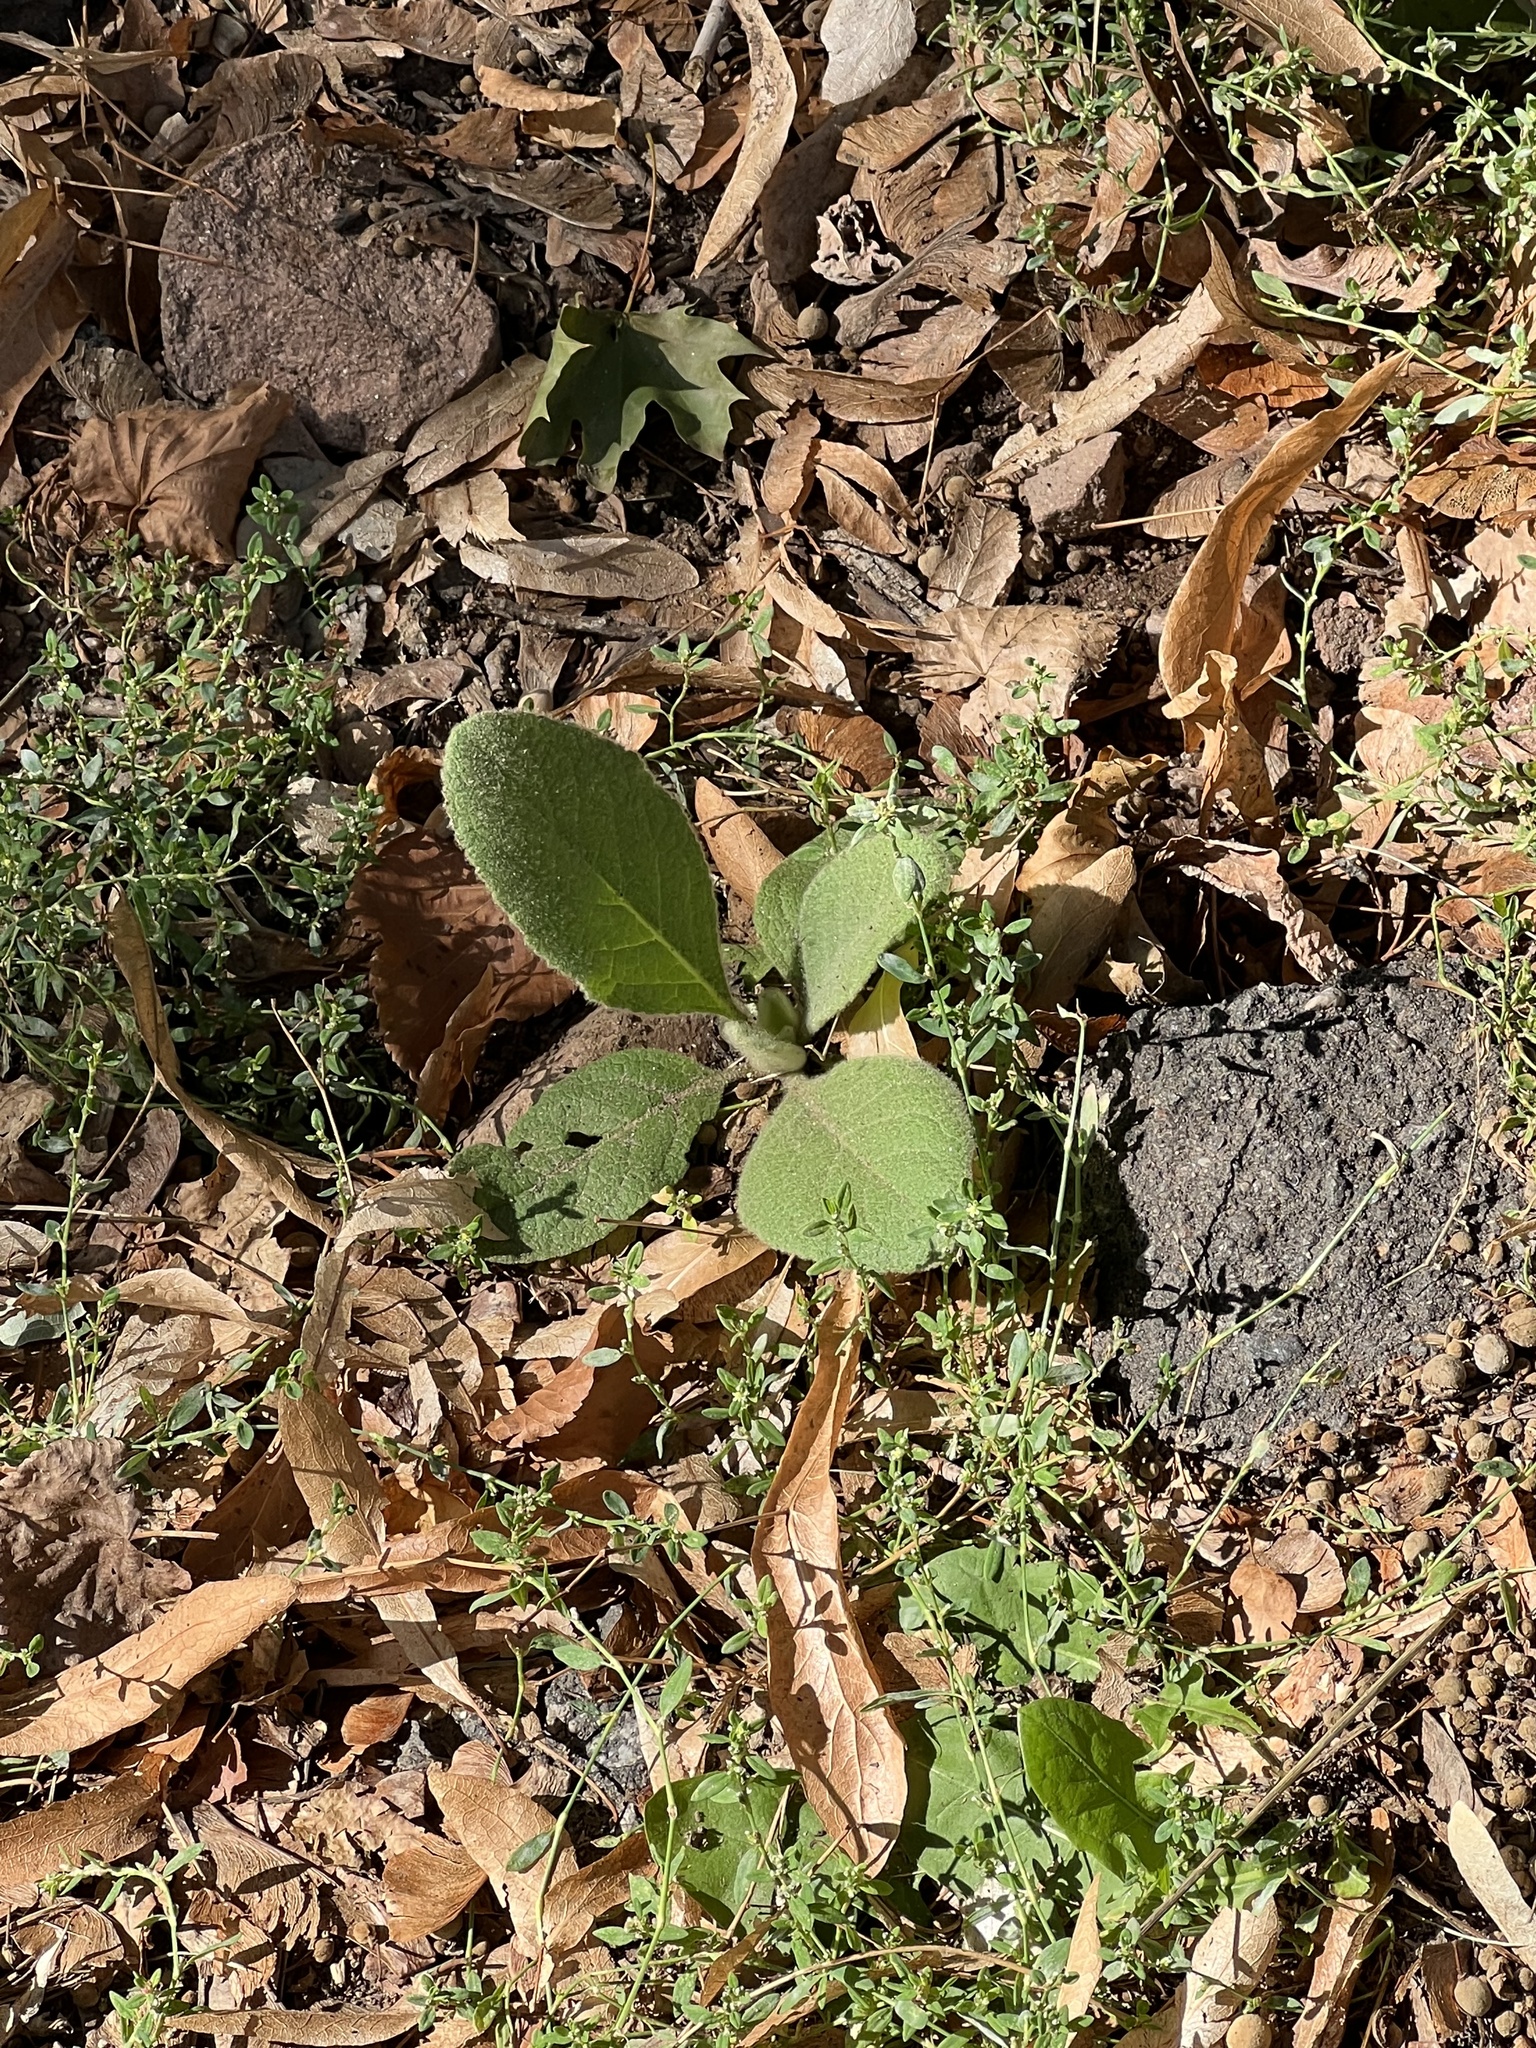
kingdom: Plantae
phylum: Tracheophyta
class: Magnoliopsida
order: Lamiales
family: Scrophulariaceae
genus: Verbascum
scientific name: Verbascum thapsus
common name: Common mullein
